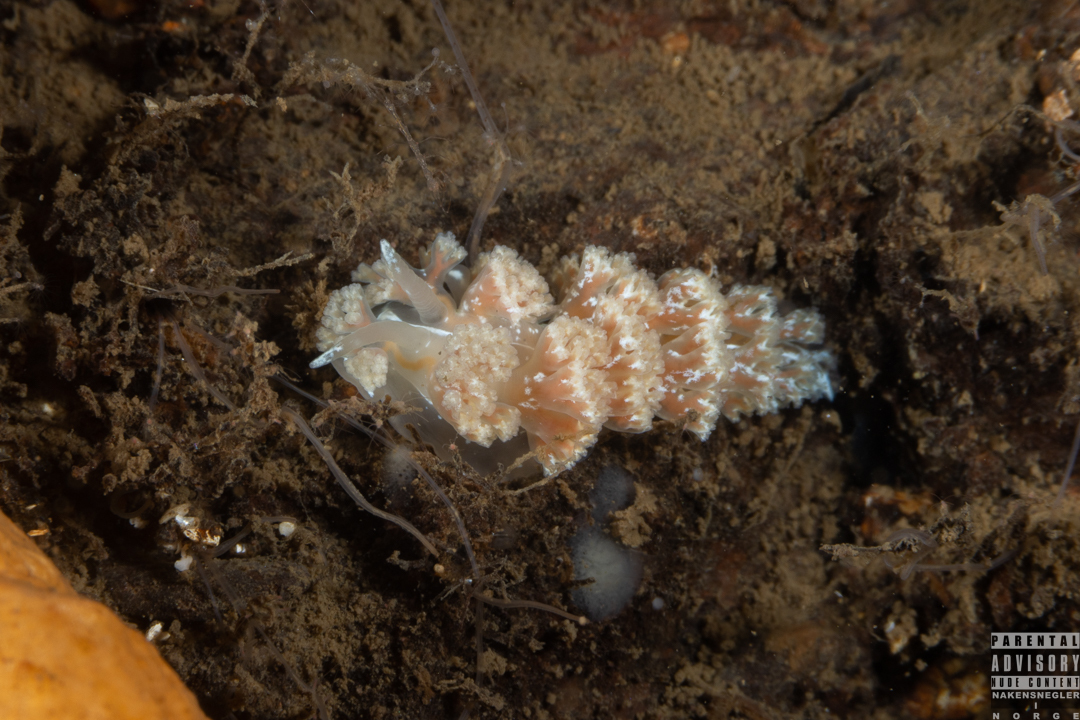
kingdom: Animalia
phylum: Mollusca
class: Gastropoda
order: Nudibranchia
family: Heroidae
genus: Hero
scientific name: Hero formosa
